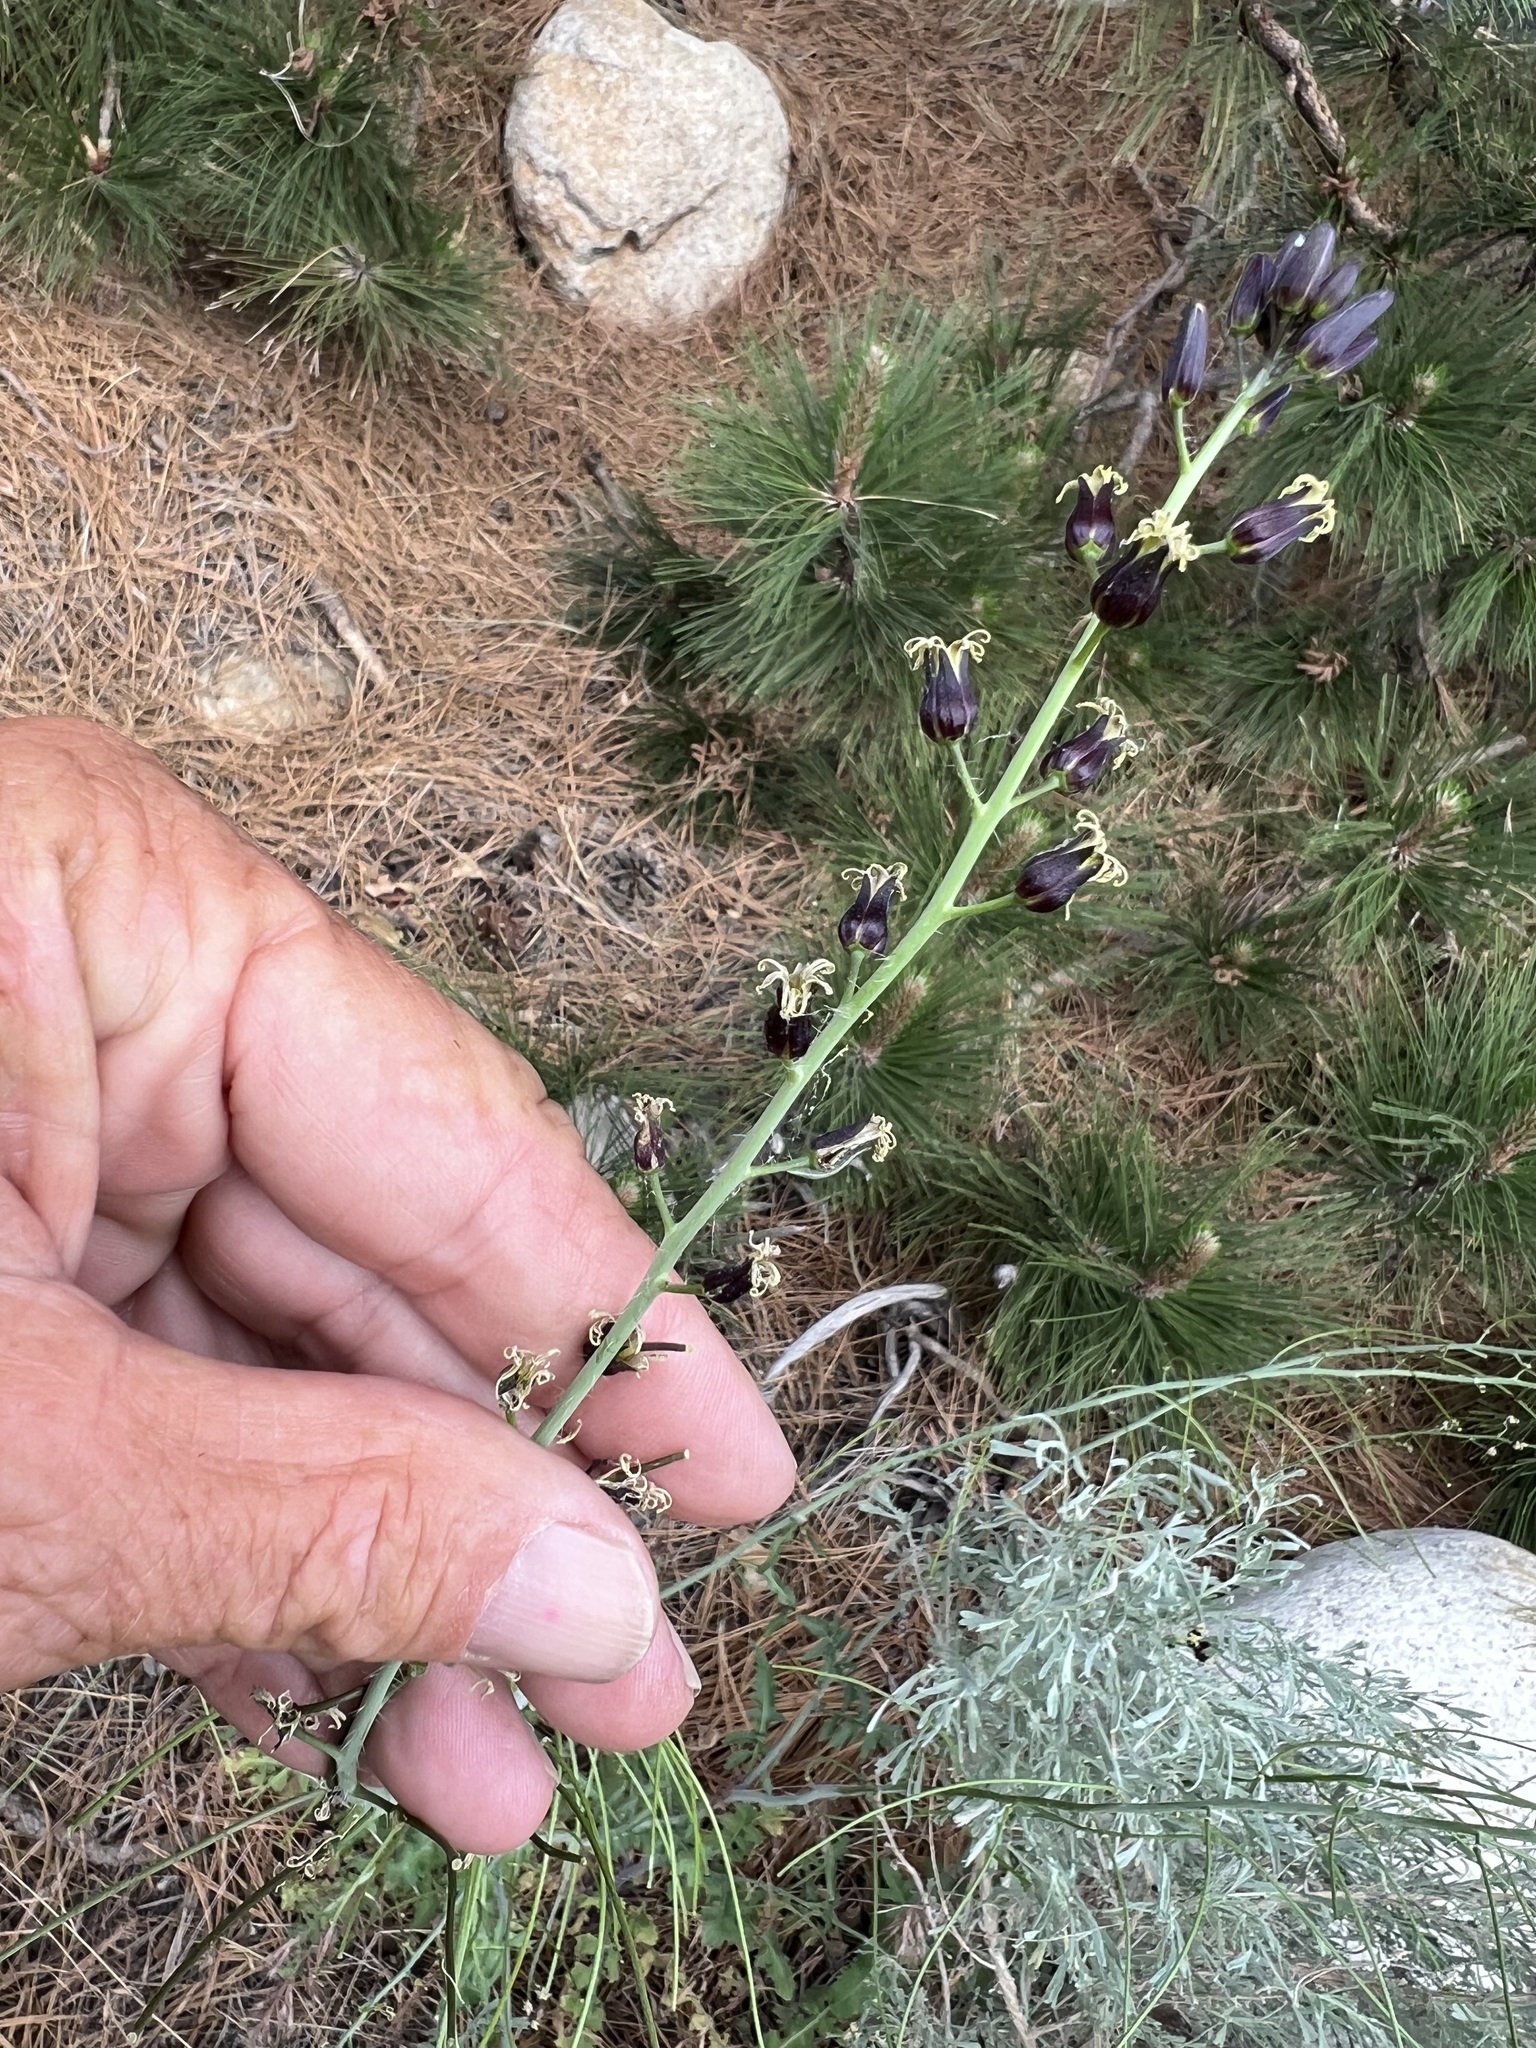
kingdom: Plantae
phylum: Tracheophyta
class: Magnoliopsida
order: Brassicales
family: Brassicaceae
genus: Streptanthus
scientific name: Streptanthus pilosus
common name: Chocolate drops
